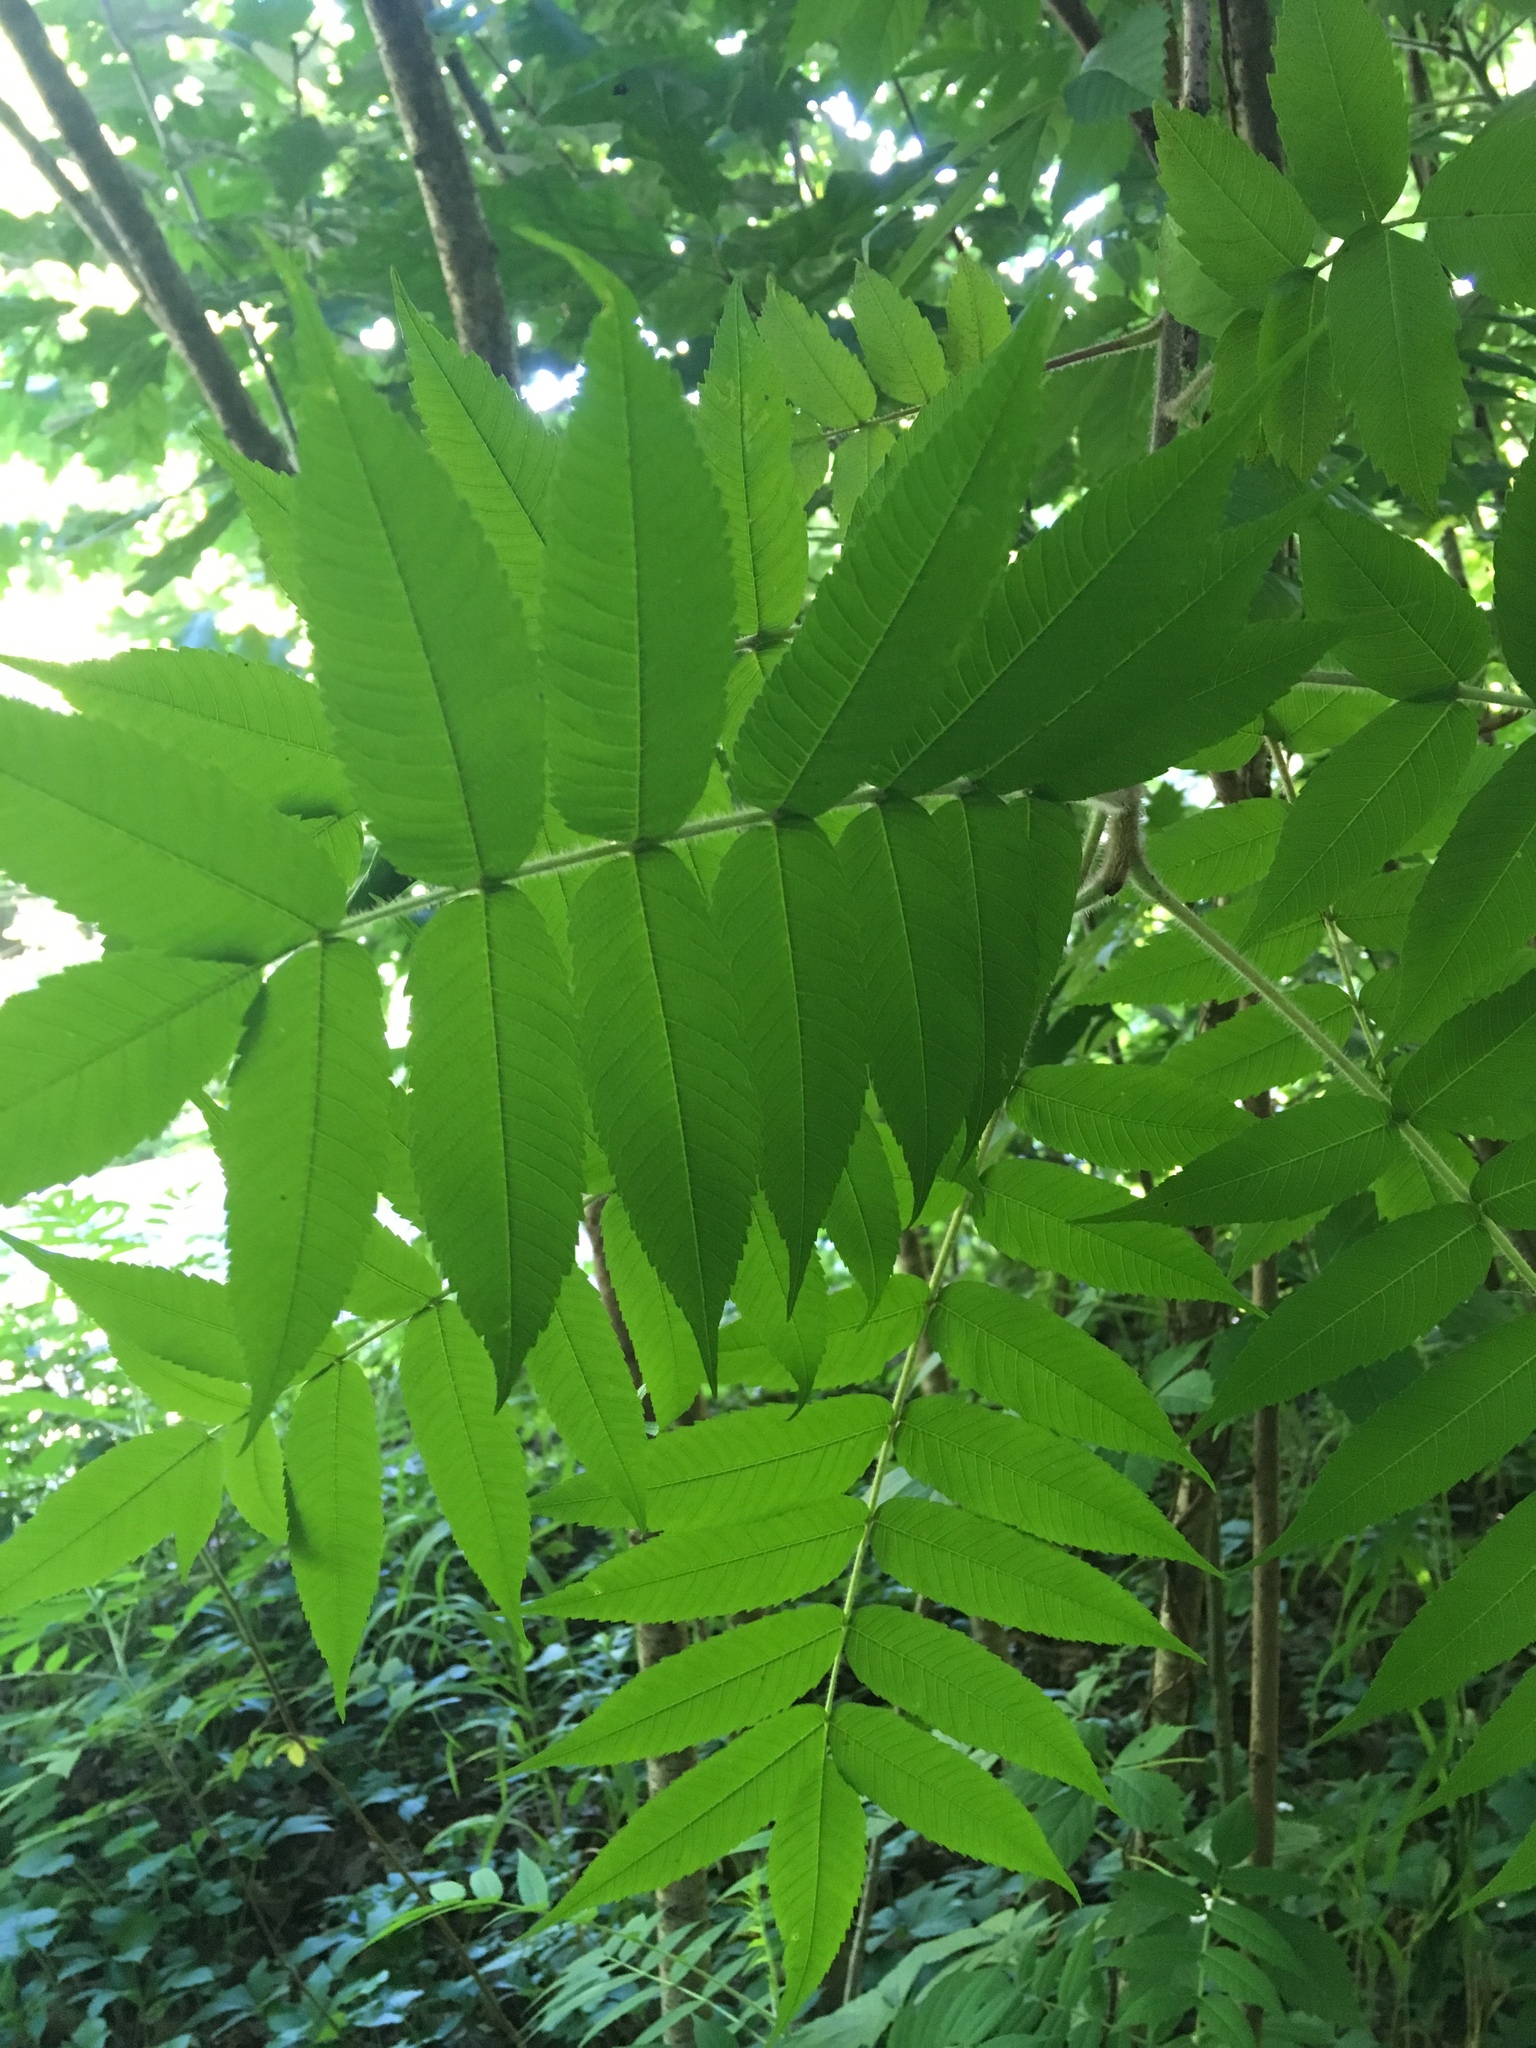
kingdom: Plantae
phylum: Tracheophyta
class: Magnoliopsida
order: Sapindales
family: Anacardiaceae
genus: Rhus
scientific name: Rhus typhina
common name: Staghorn sumac
